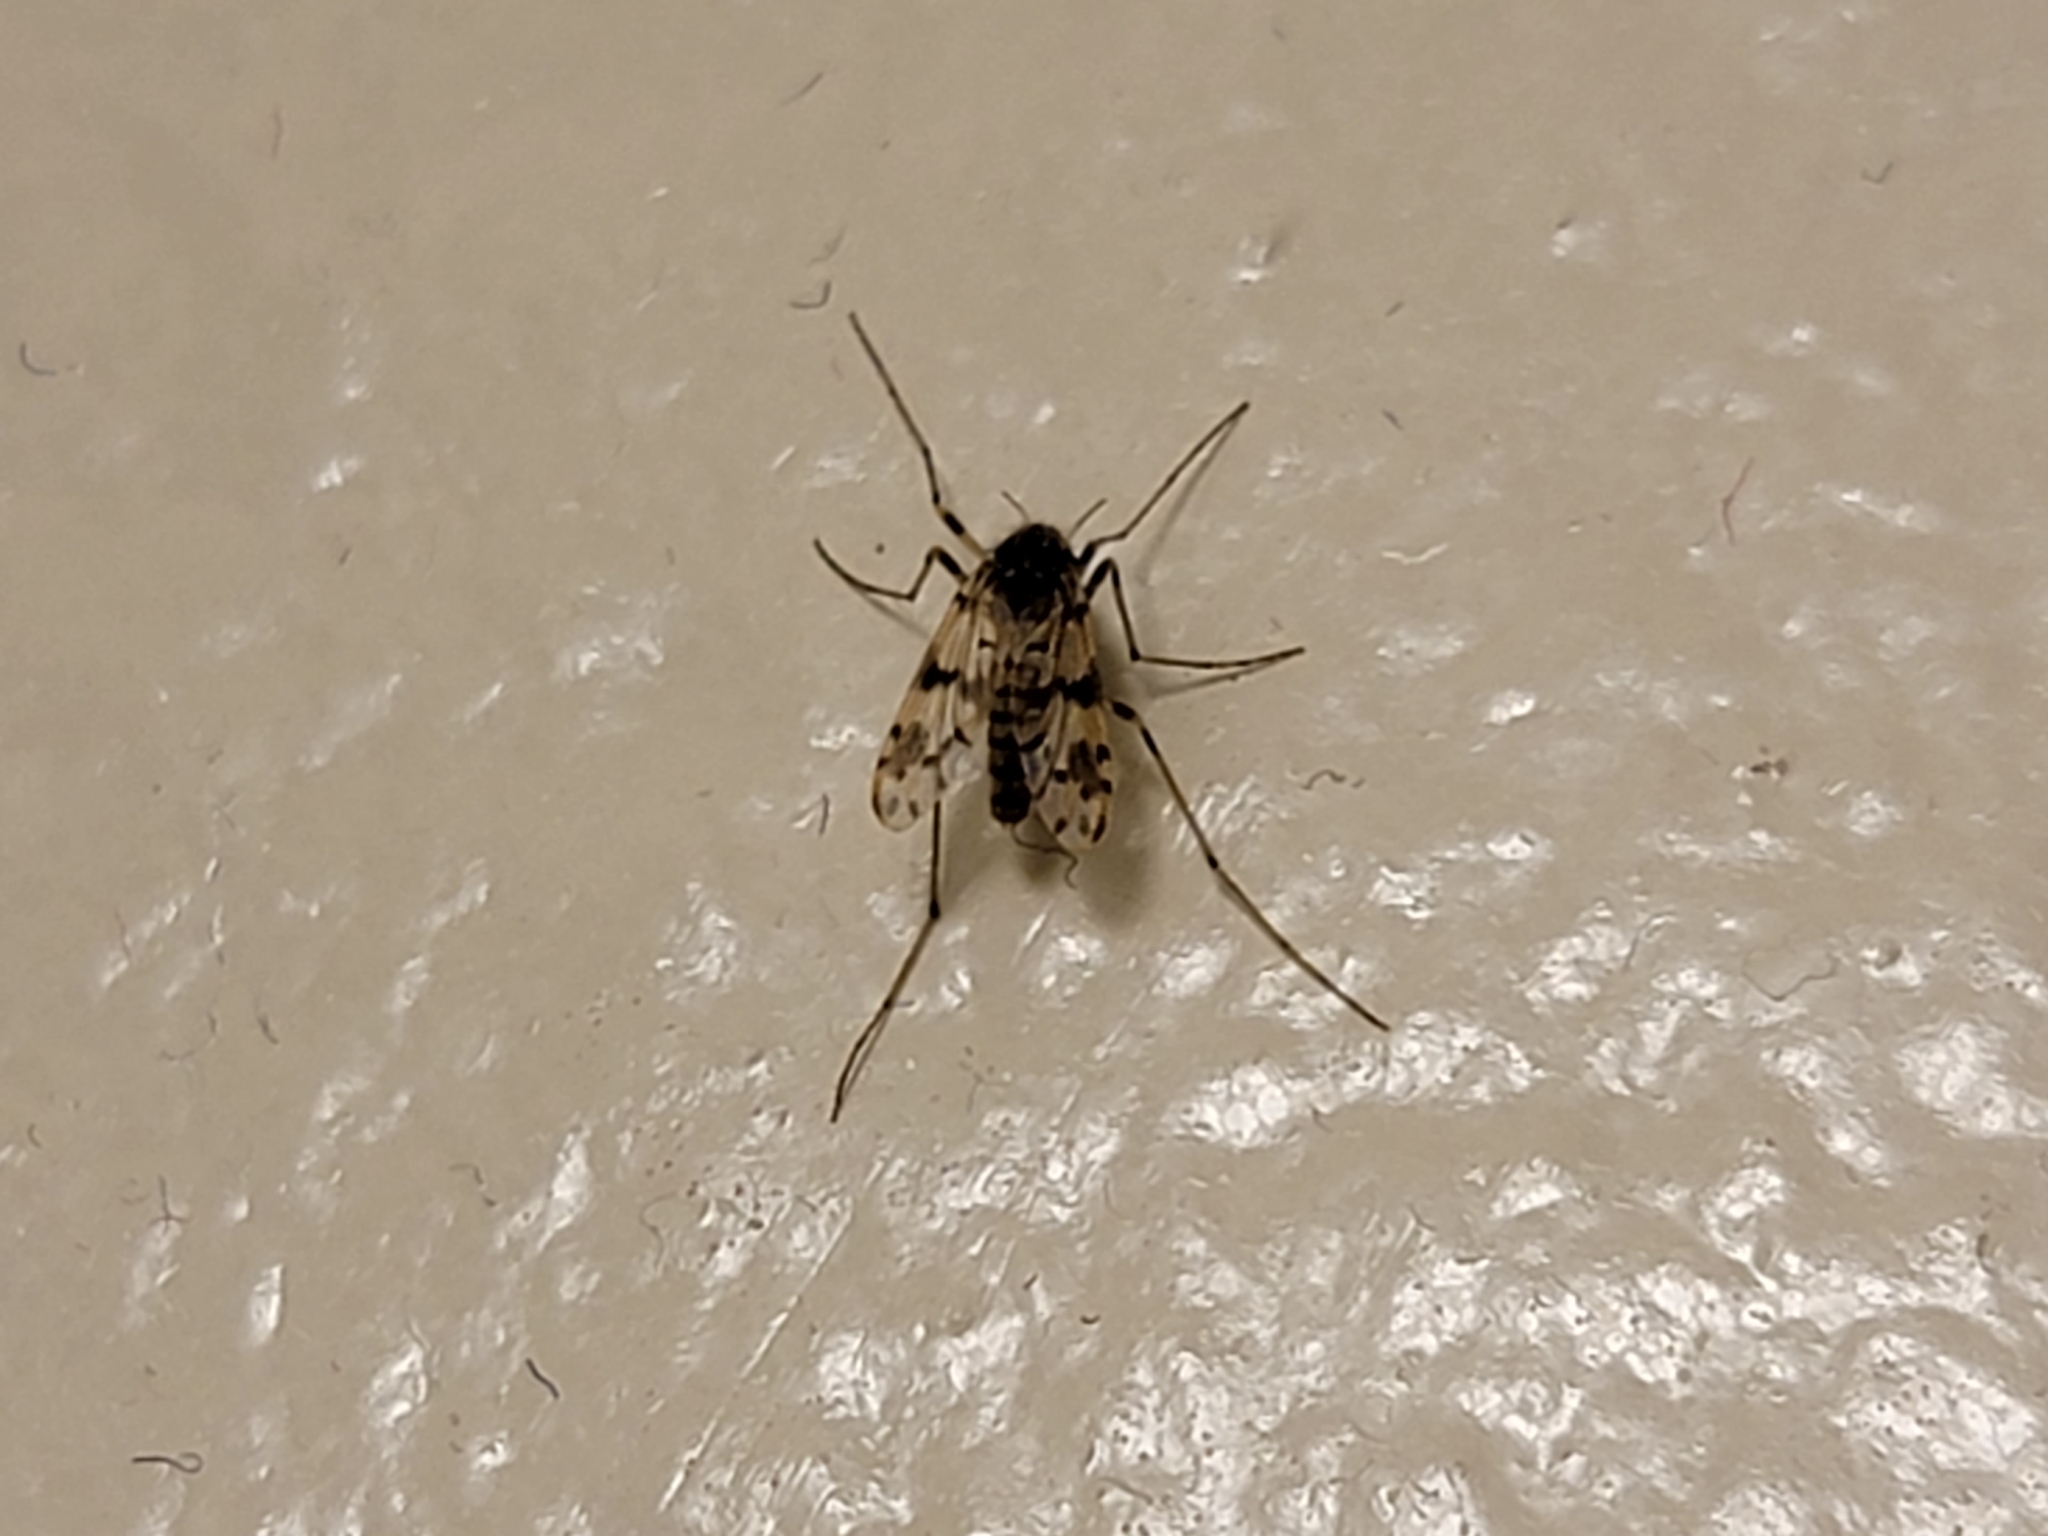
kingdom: Animalia
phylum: Arthropoda
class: Insecta
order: Diptera
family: Chironomidae
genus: Alotanypus
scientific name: Alotanypus venusta
